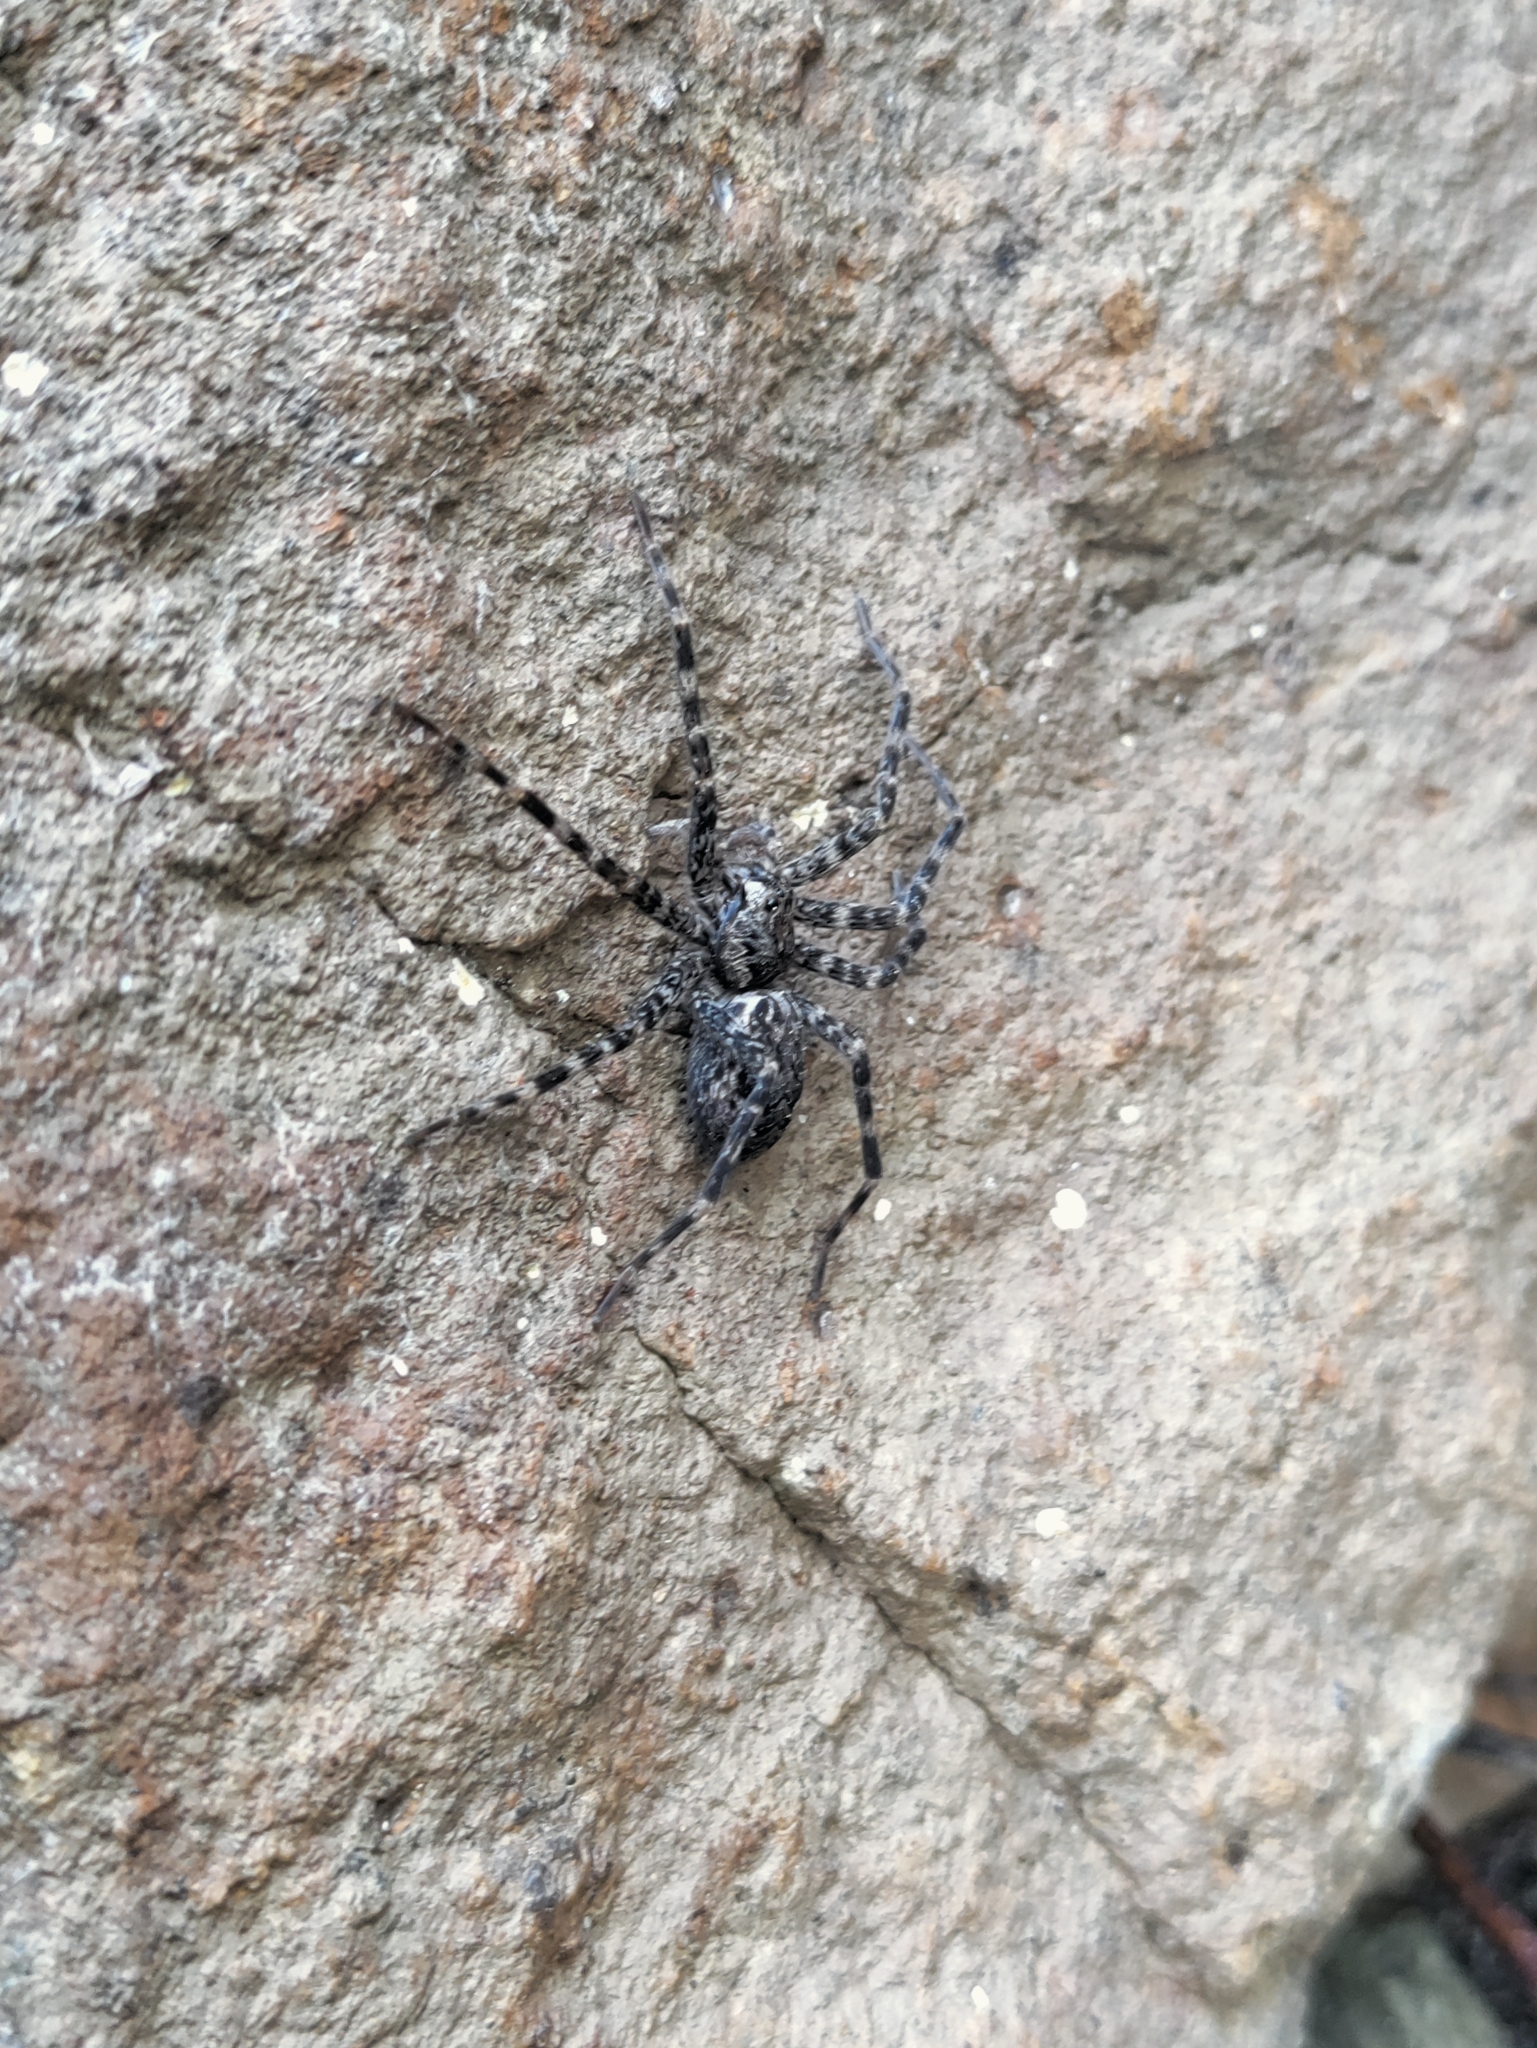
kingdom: Animalia
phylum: Arthropoda
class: Arachnida
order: Araneae
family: Pisauridae
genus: Dolomedes
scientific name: Dolomedes tenebrosus
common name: Dark fishing spider
